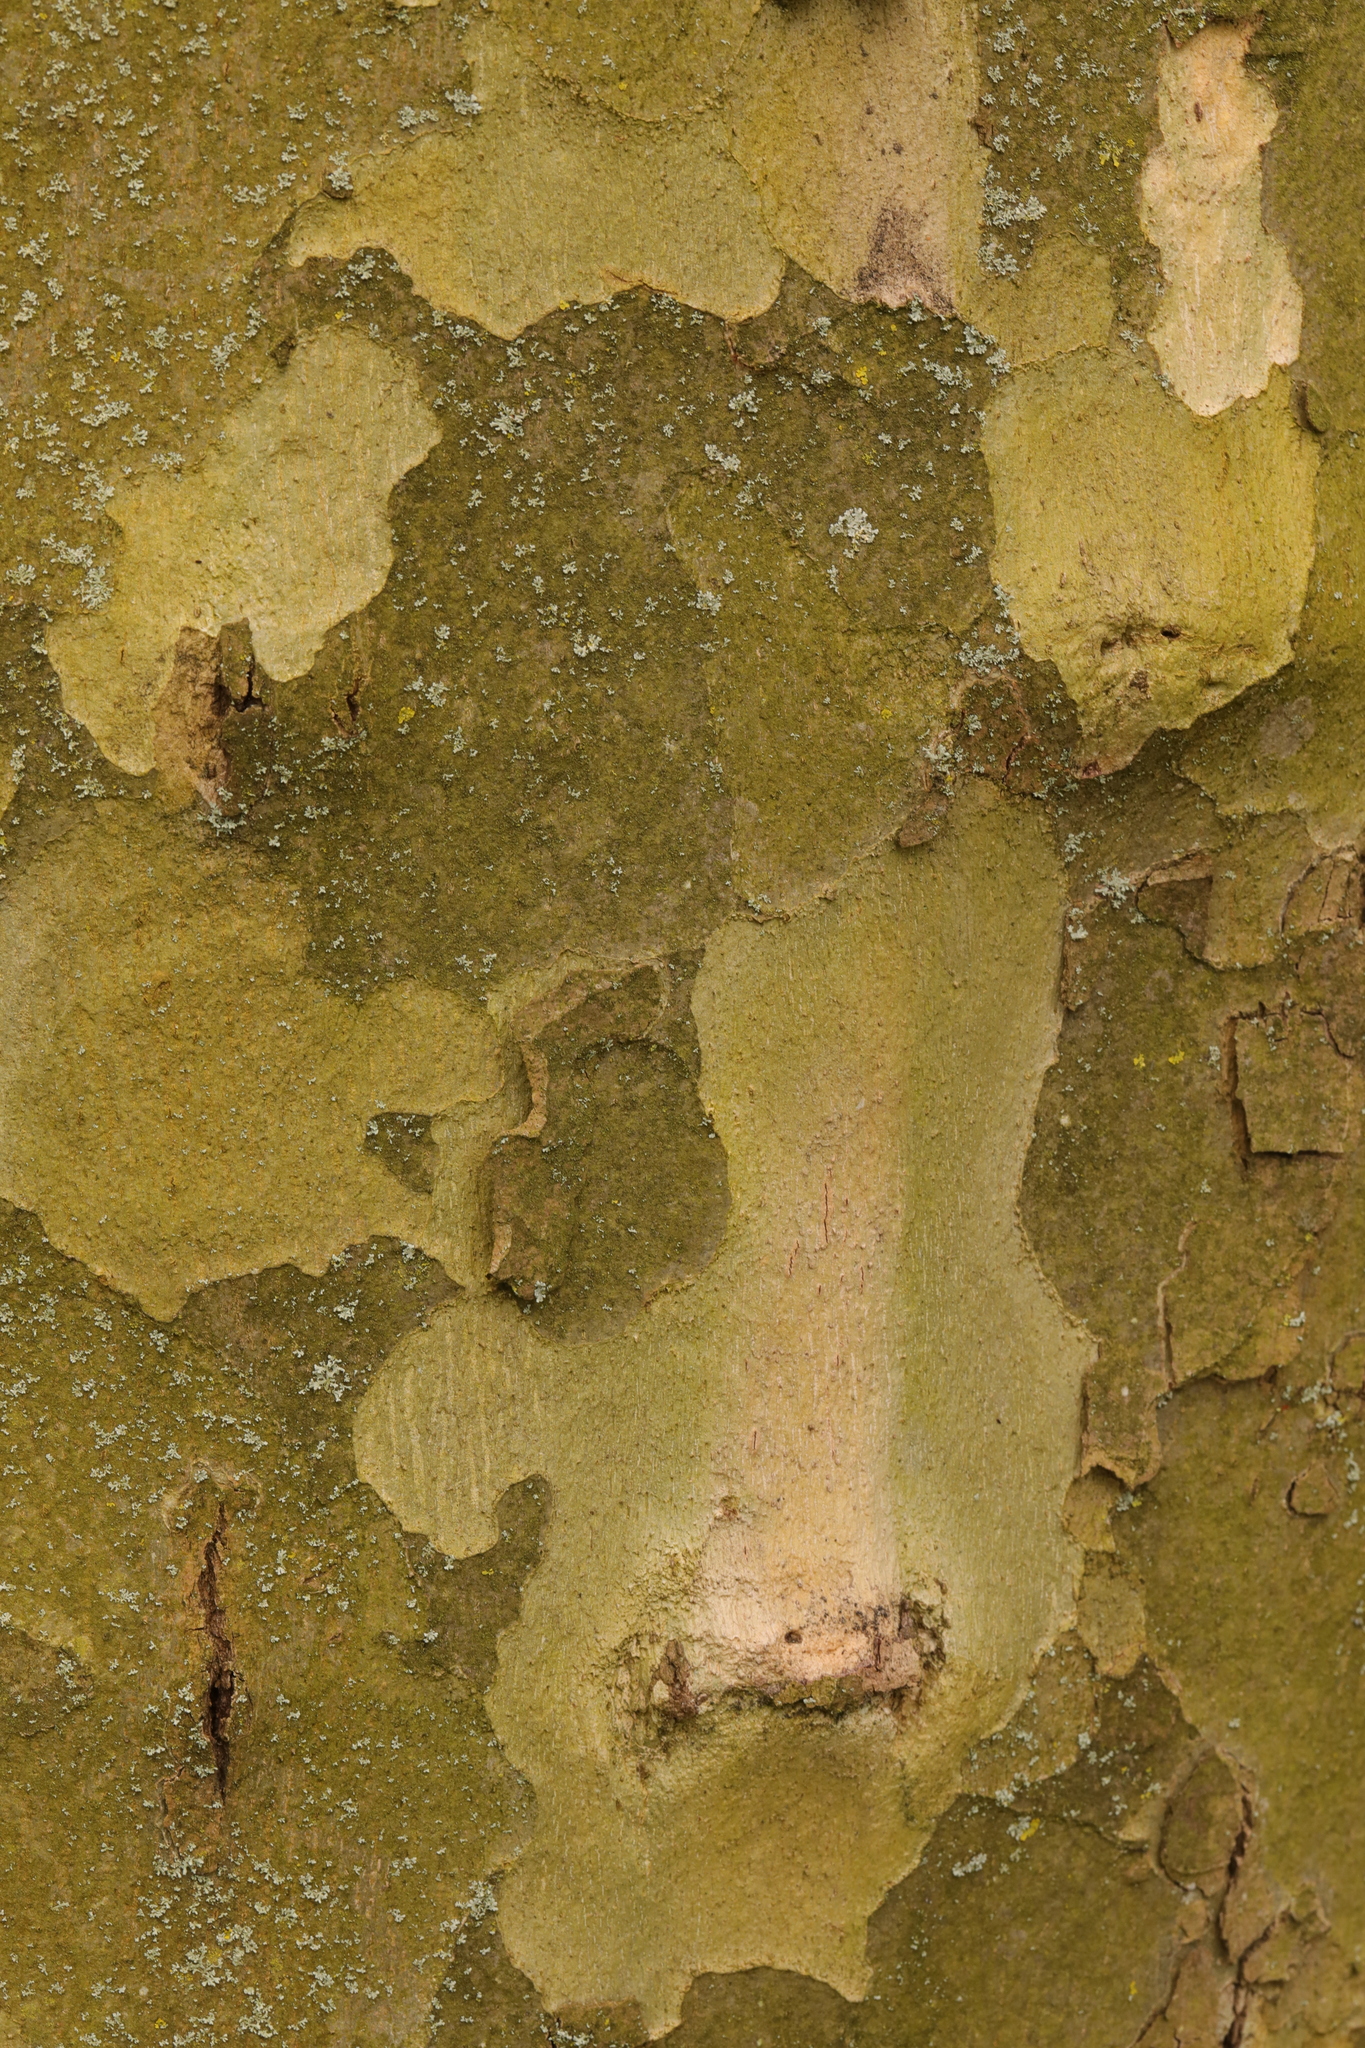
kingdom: Plantae
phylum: Tracheophyta
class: Magnoliopsida
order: Proteales
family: Platanaceae
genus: Platanus
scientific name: Platanus hispanica
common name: London plane
